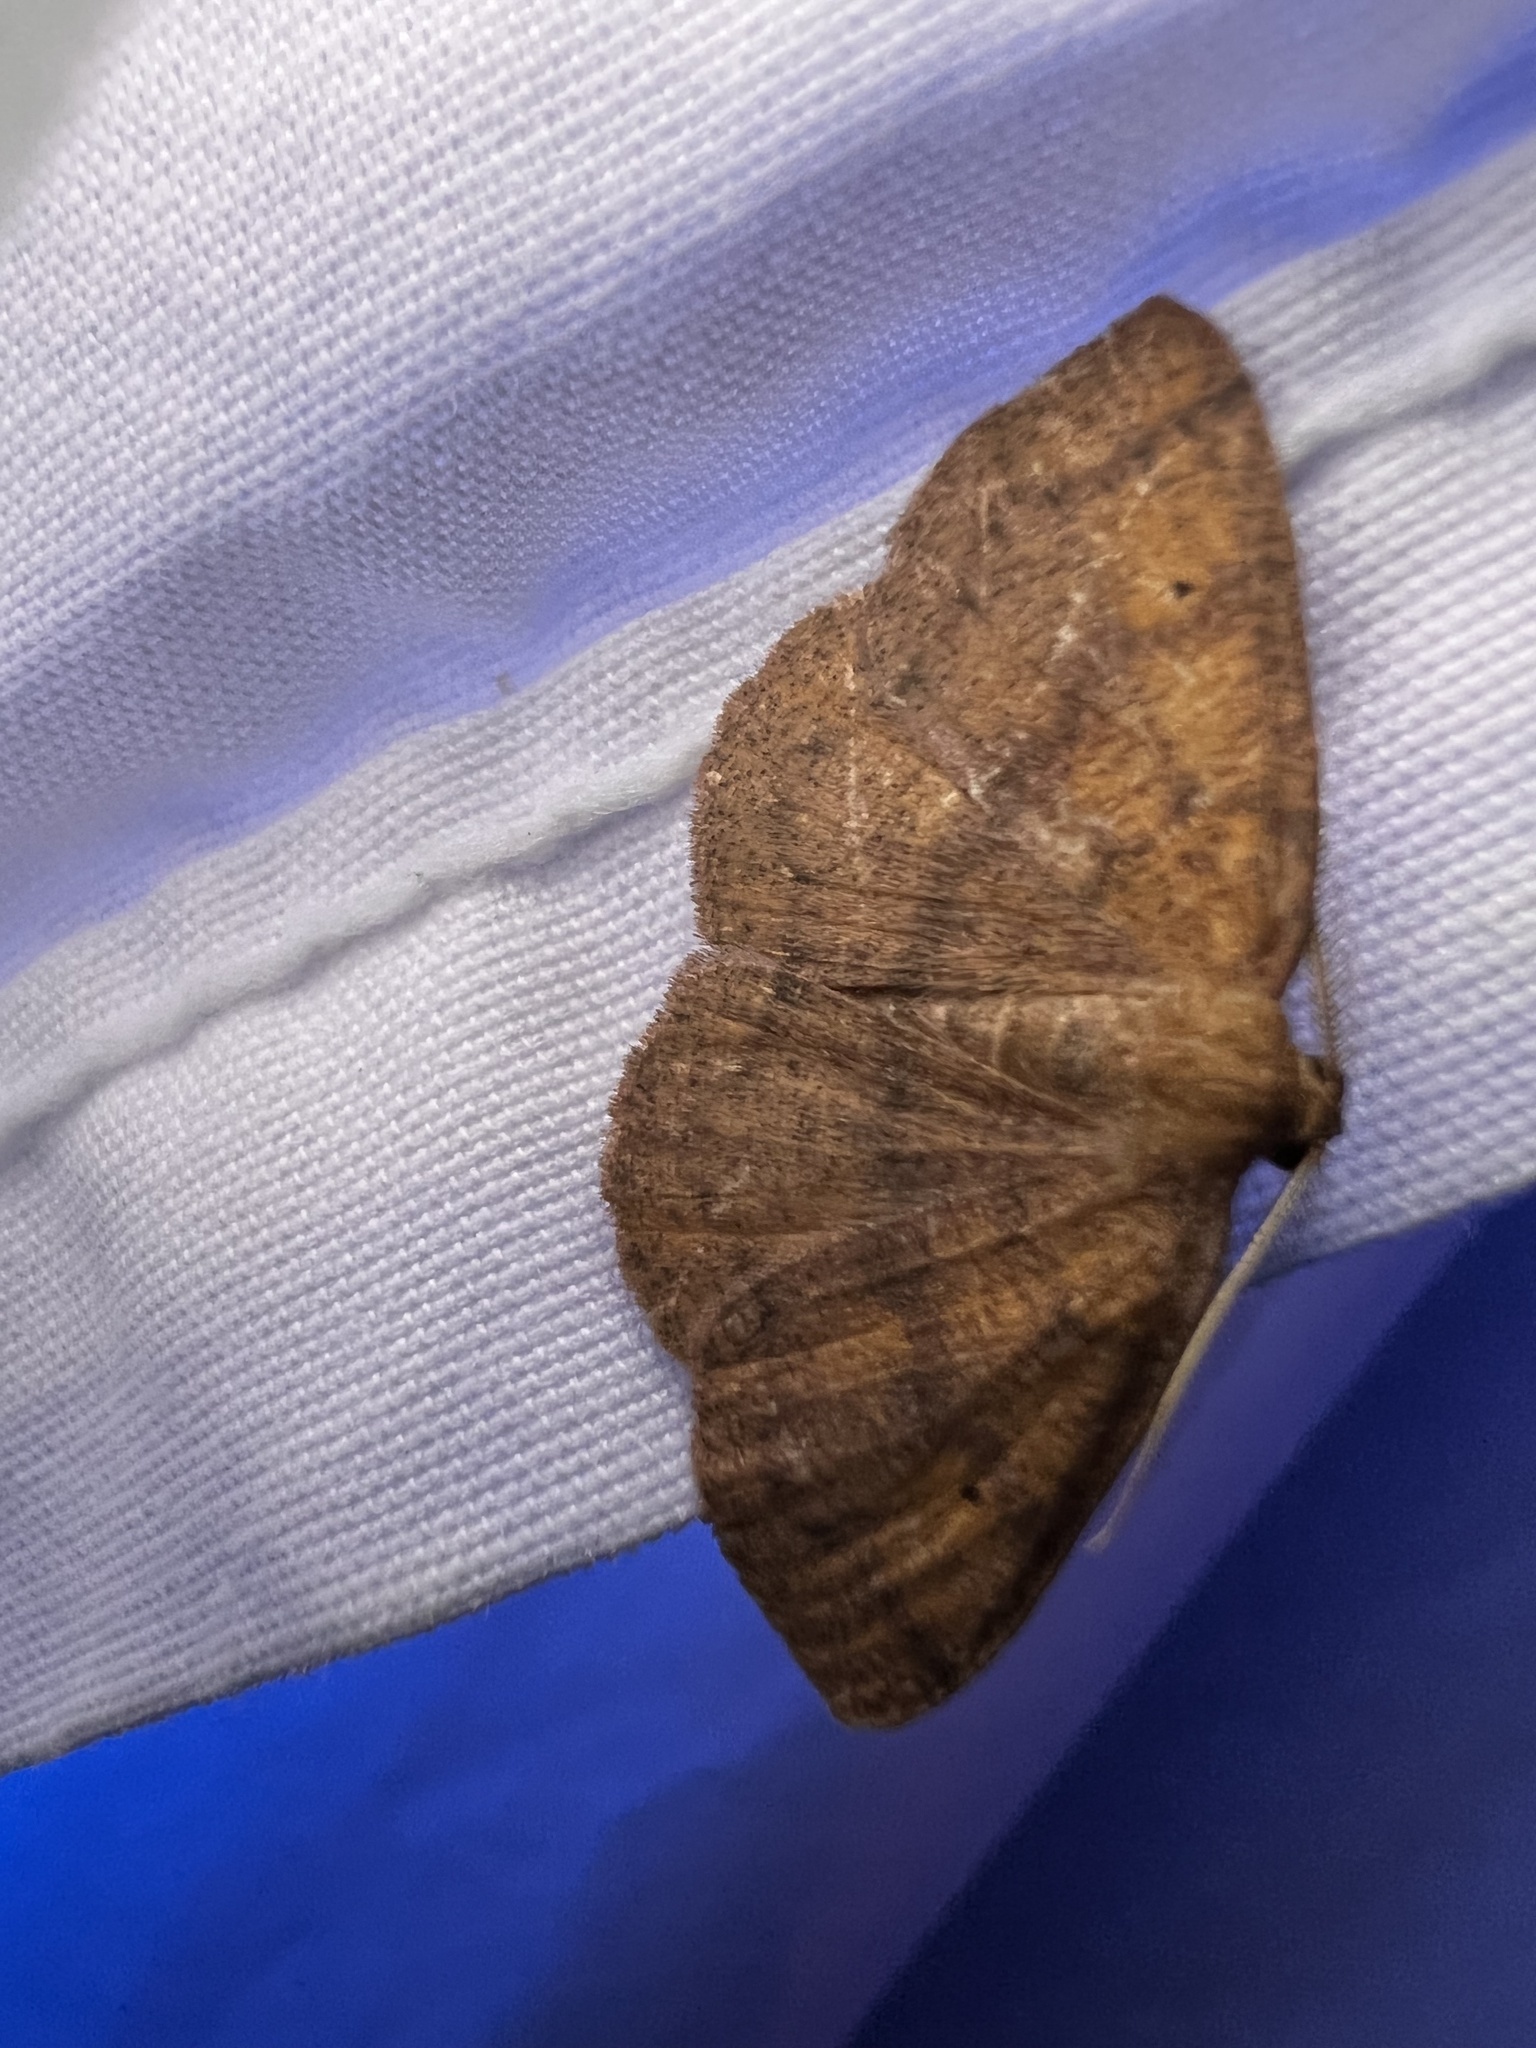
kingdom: Animalia
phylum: Arthropoda
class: Insecta
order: Lepidoptera
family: Geometridae
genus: Ilexia
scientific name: Ilexia intractata
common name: Black-dotted ruddy moth
